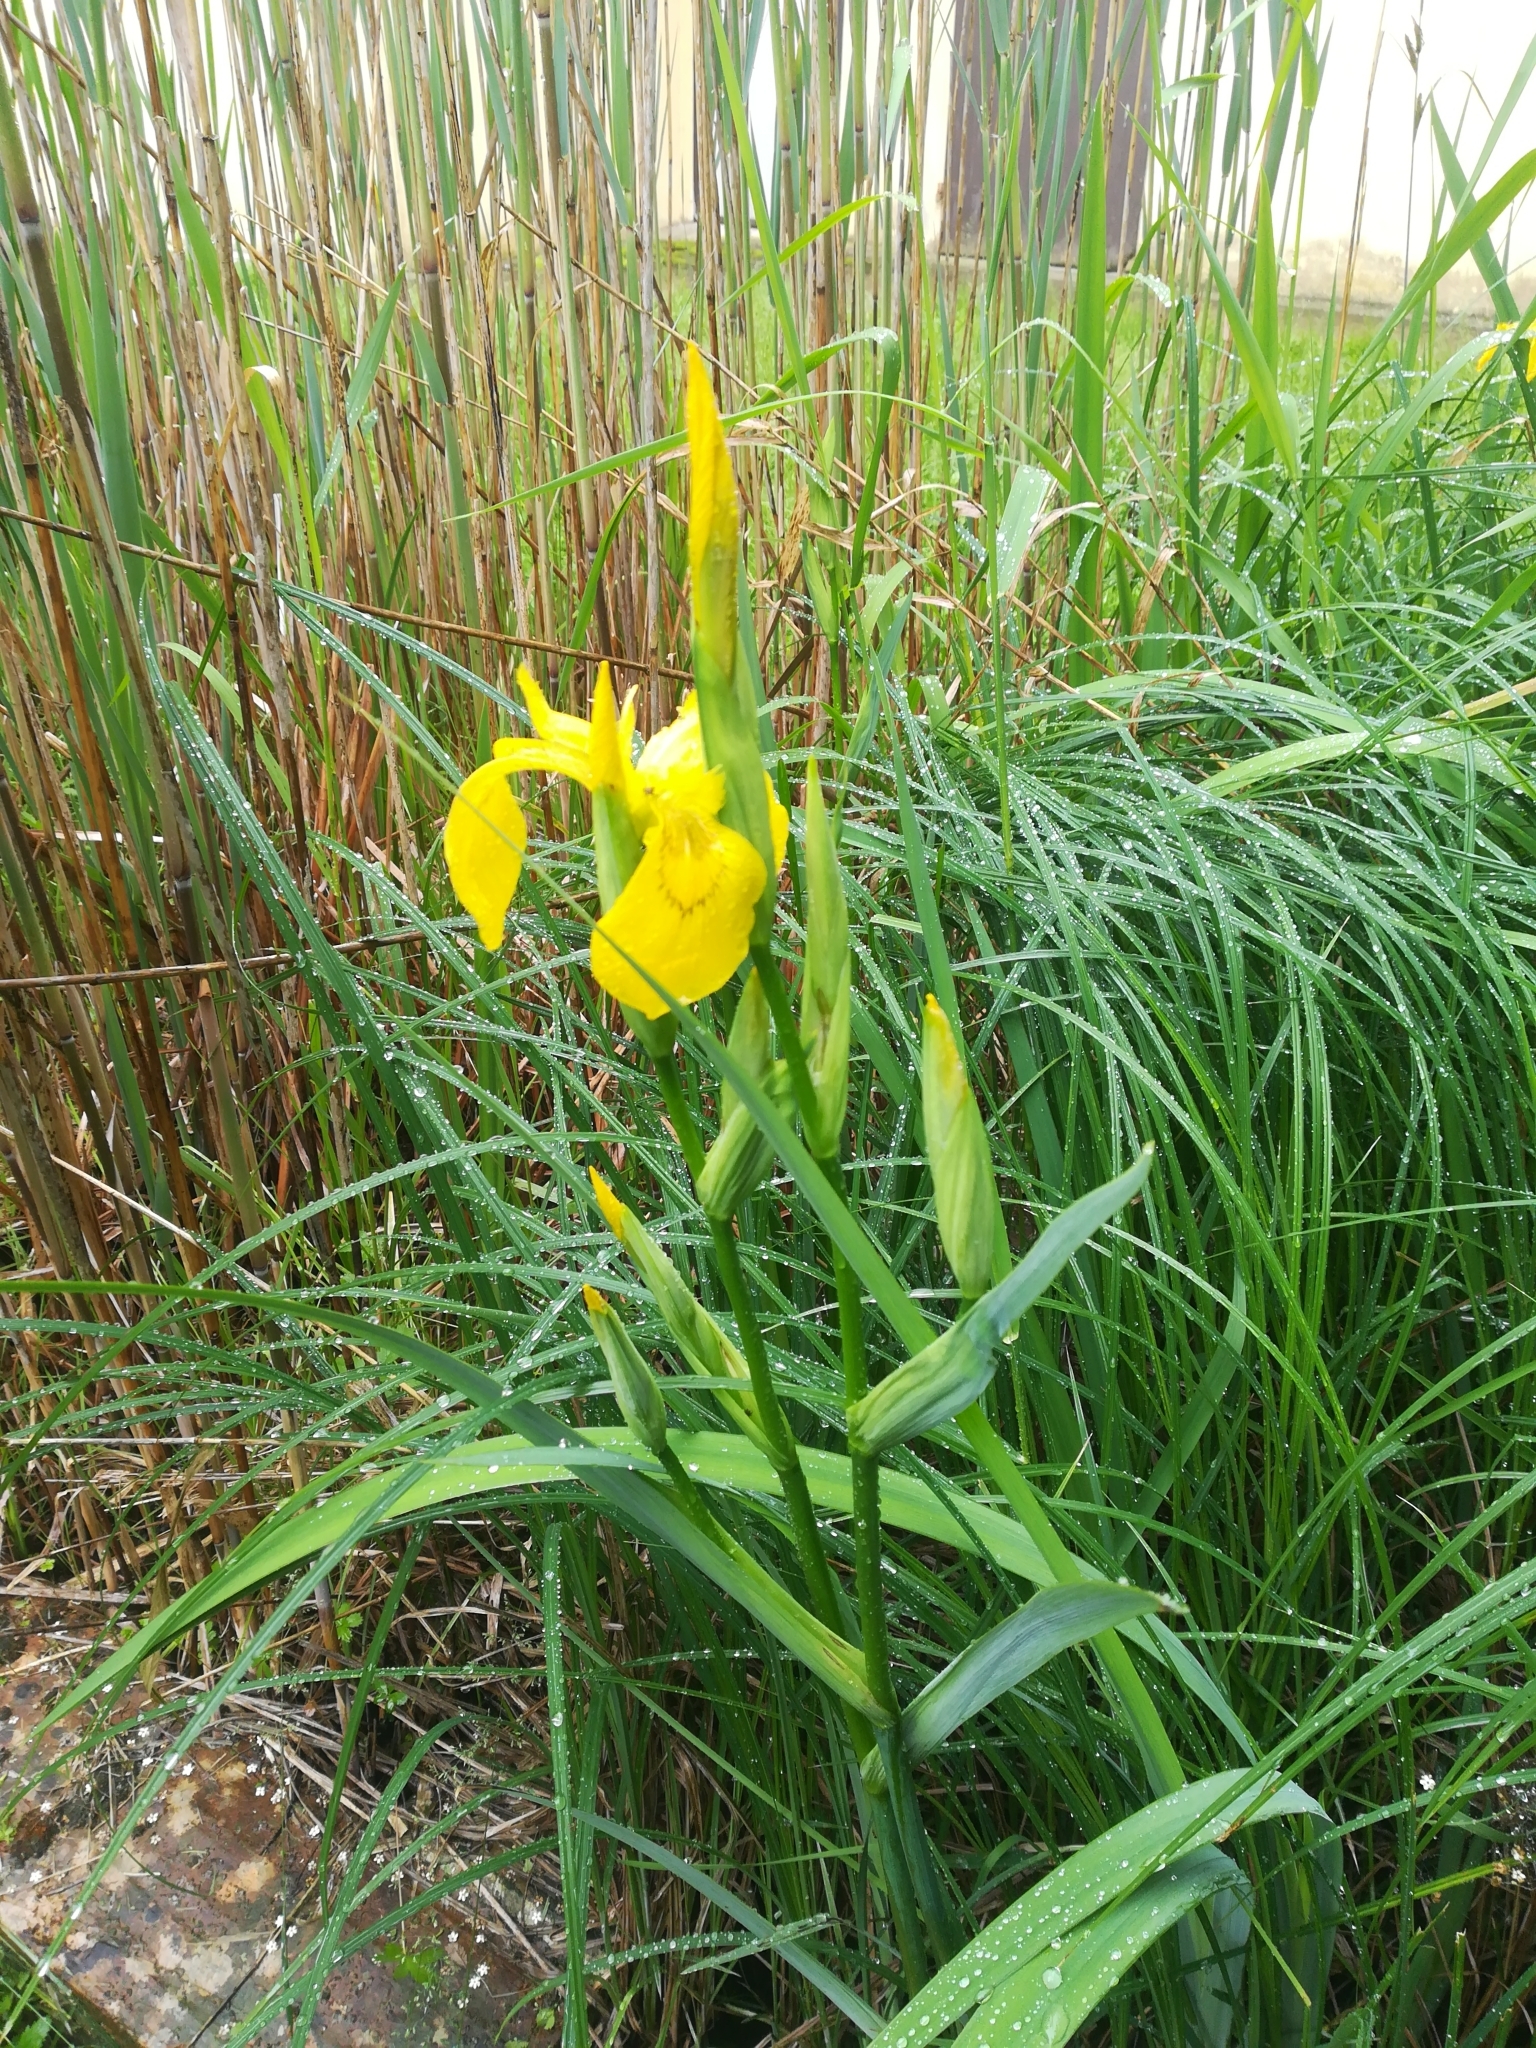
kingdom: Plantae
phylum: Tracheophyta
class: Liliopsida
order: Asparagales
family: Iridaceae
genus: Iris
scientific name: Iris pseudacorus
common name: Yellow flag
